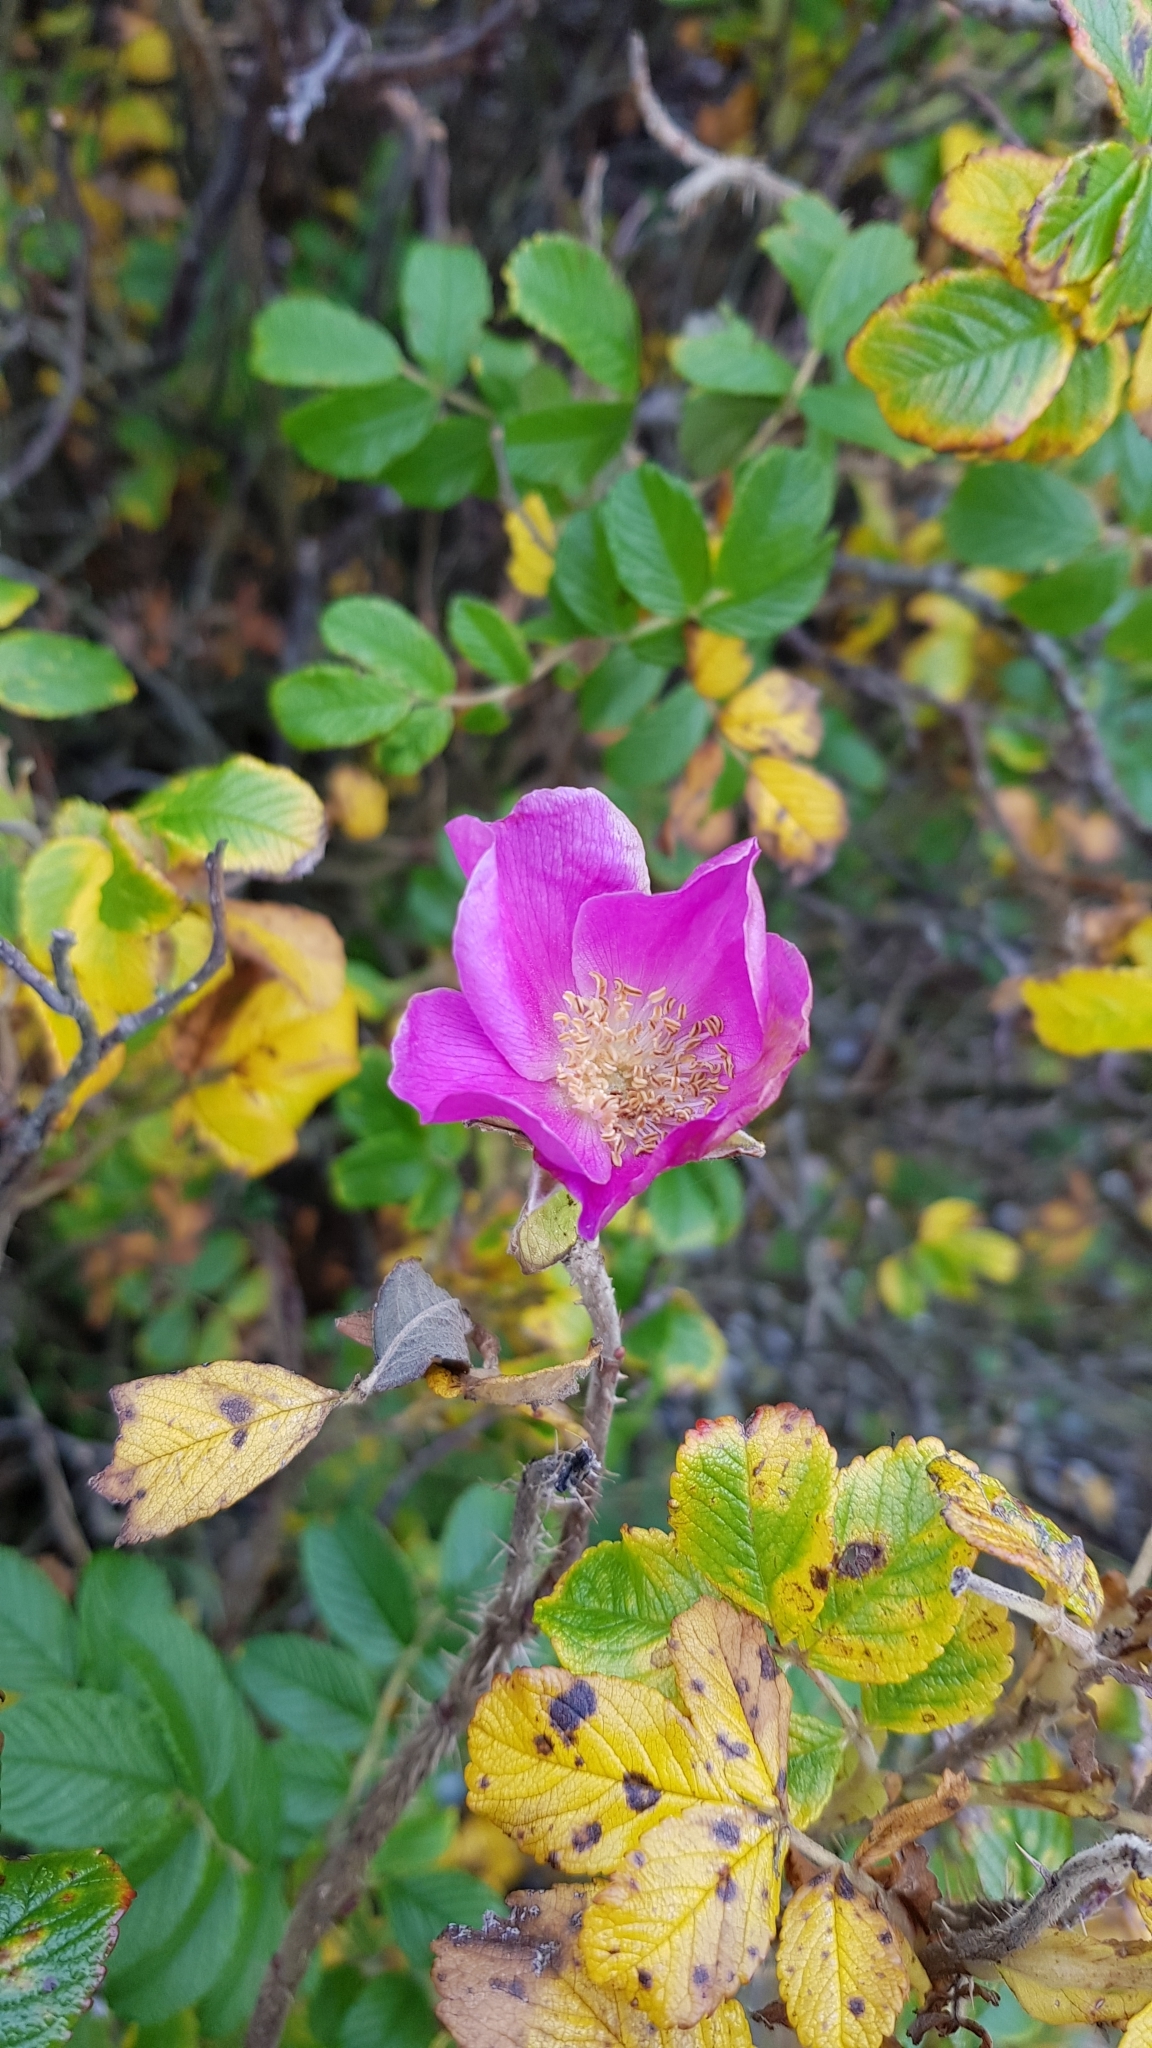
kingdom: Plantae
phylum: Tracheophyta
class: Magnoliopsida
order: Rosales
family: Rosaceae
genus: Rosa
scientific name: Rosa rugosa
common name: Japanese rose
